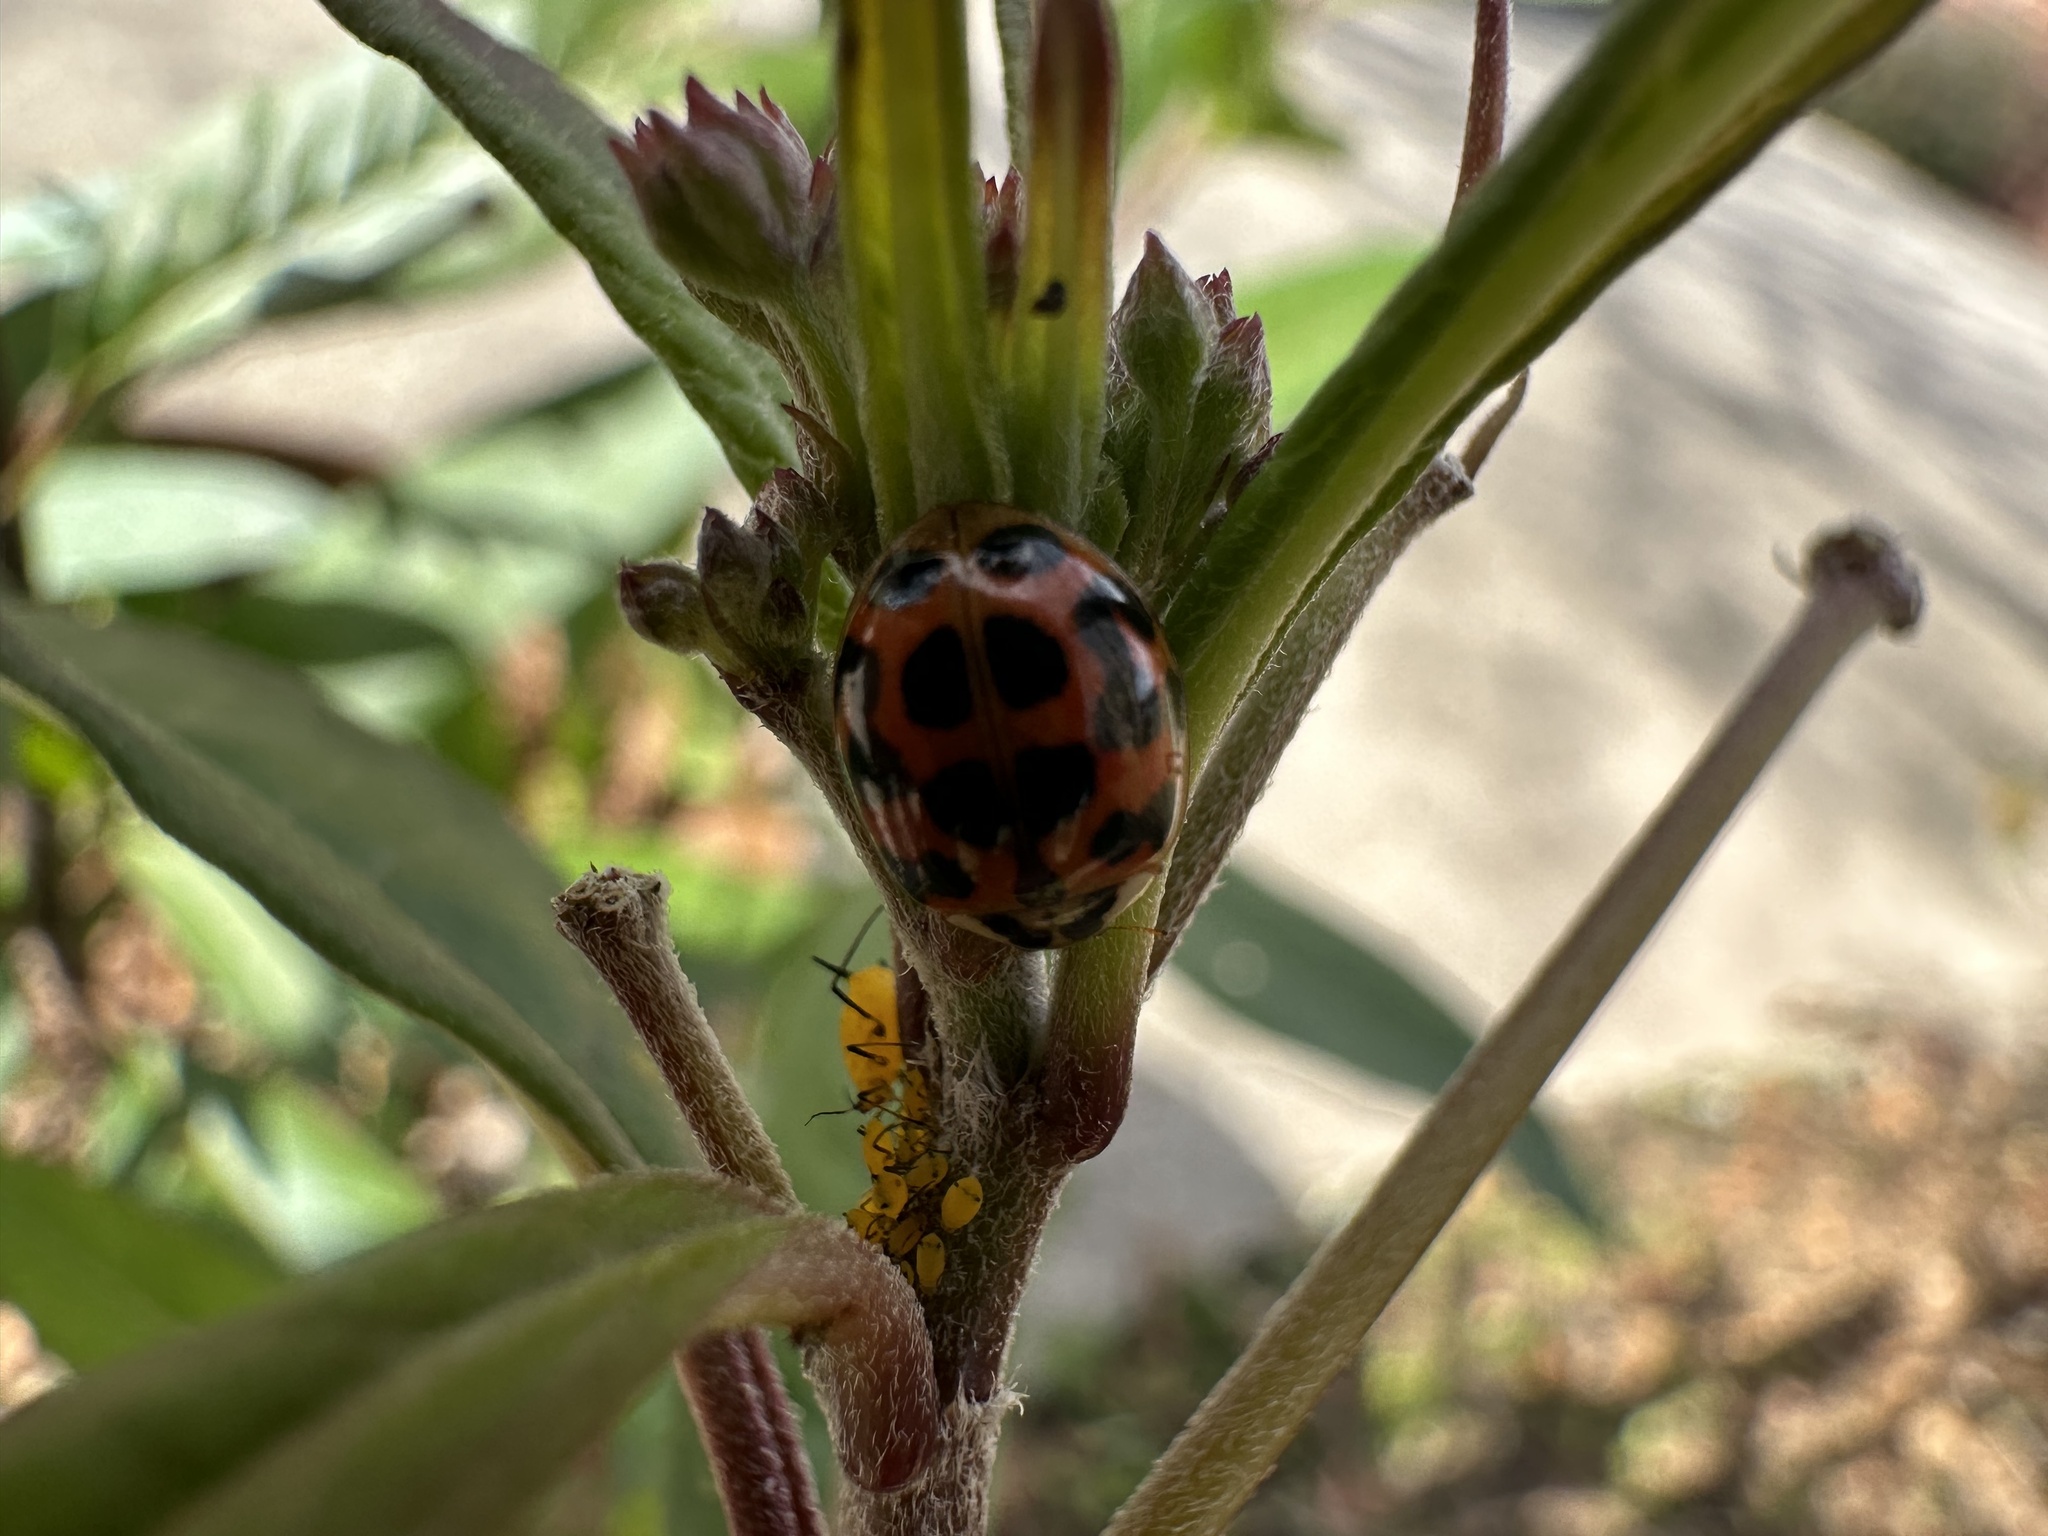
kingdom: Animalia
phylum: Arthropoda
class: Insecta
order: Coleoptera
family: Coccinellidae
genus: Harmonia
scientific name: Harmonia axyridis
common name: Harlequin ladybird
